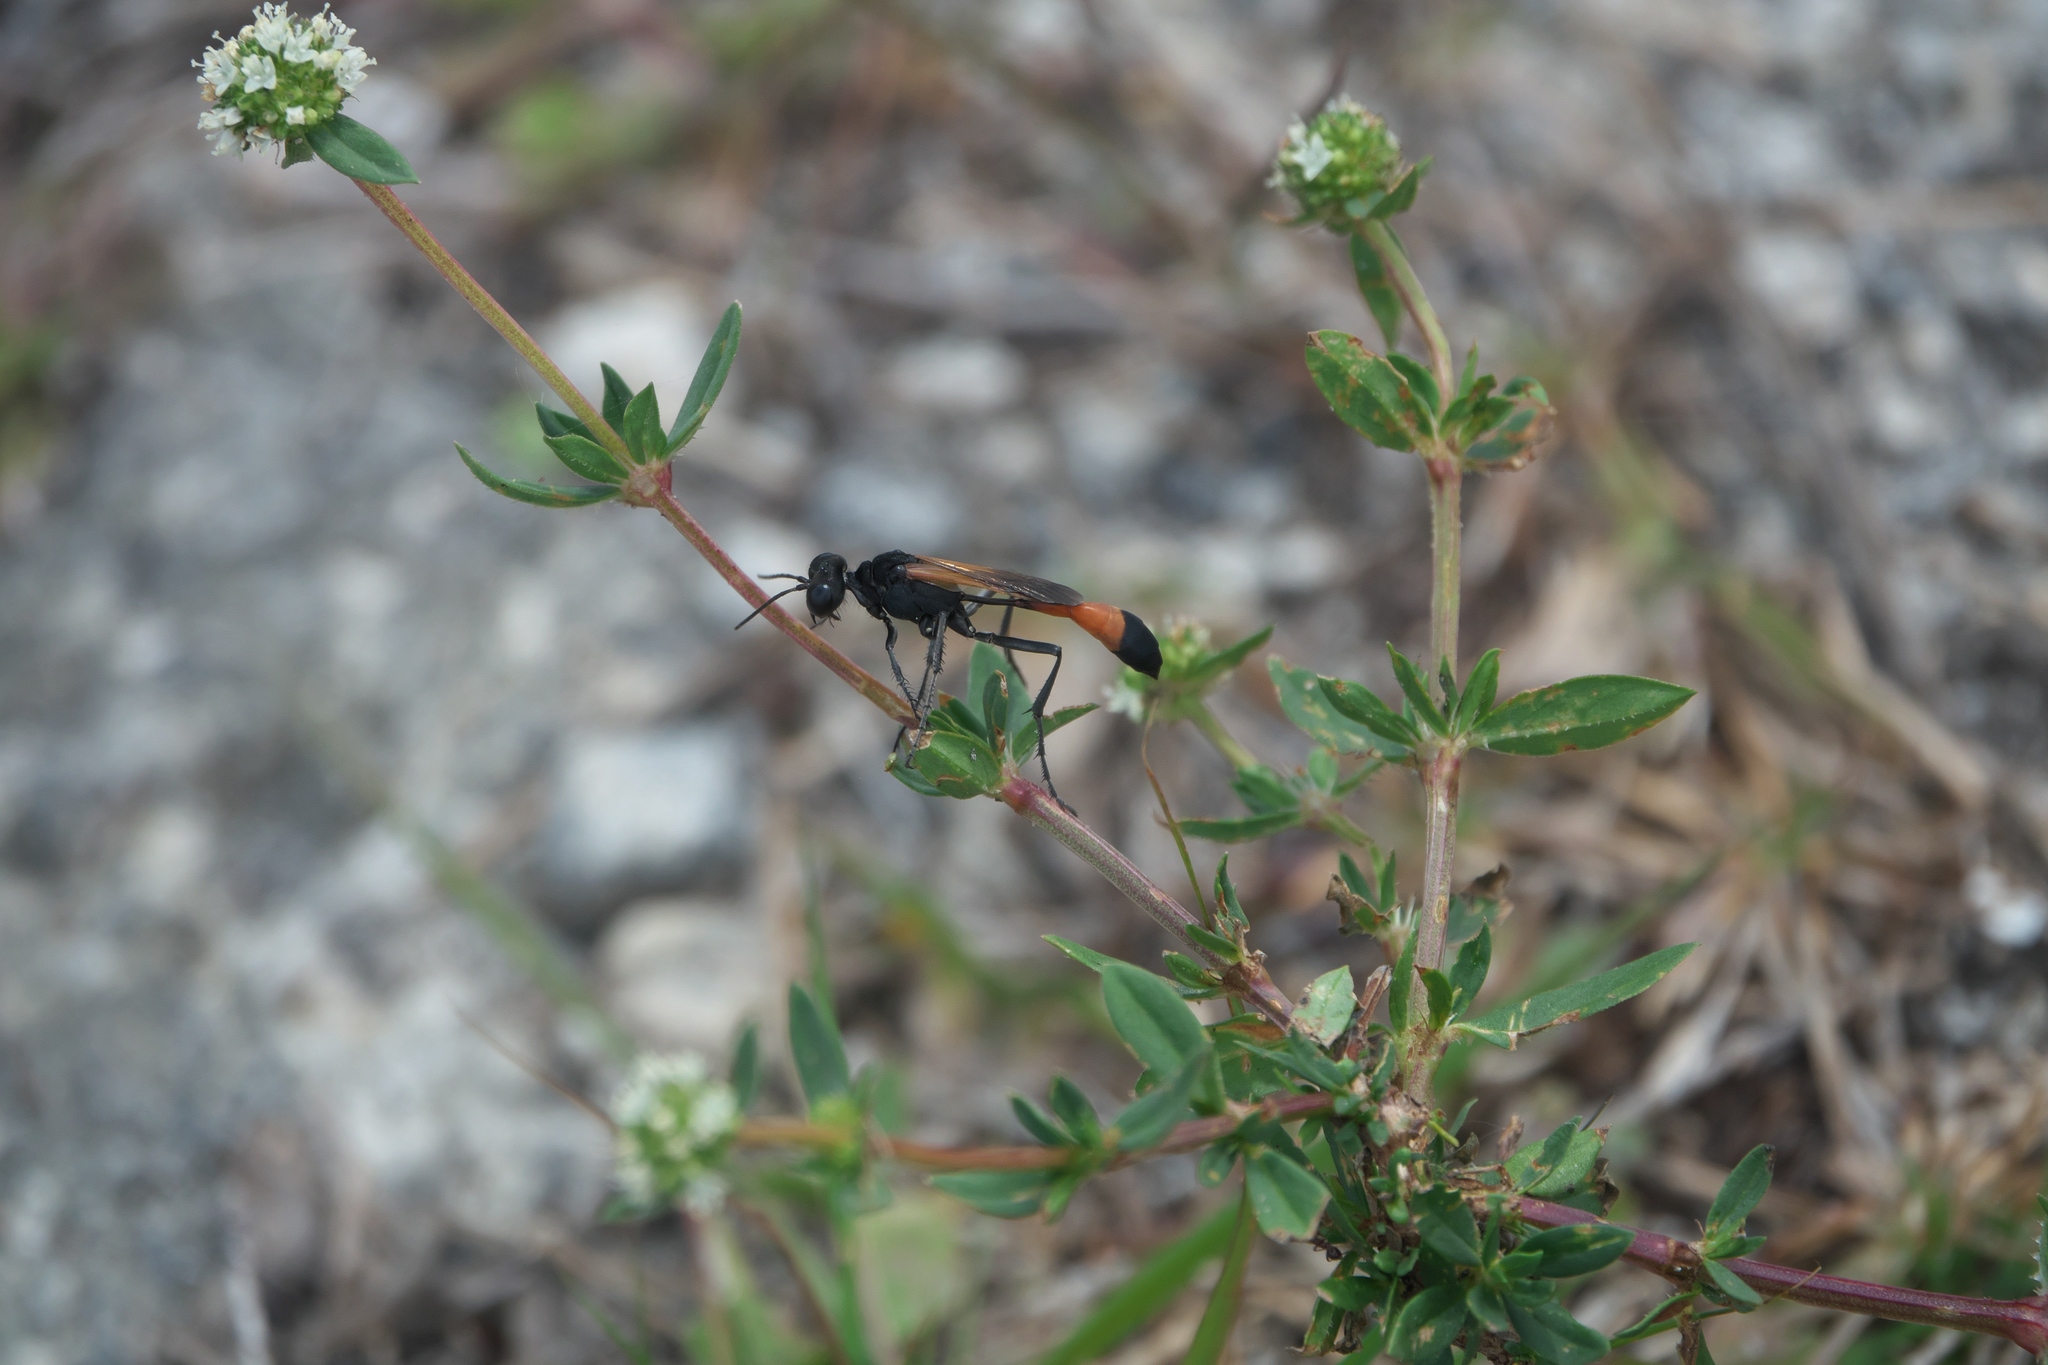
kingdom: Plantae
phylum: Tracheophyta
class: Magnoliopsida
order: Gentianales
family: Rubiaceae
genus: Spermacoce
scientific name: Spermacoce verticillata
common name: Shrubby false buttonweed
